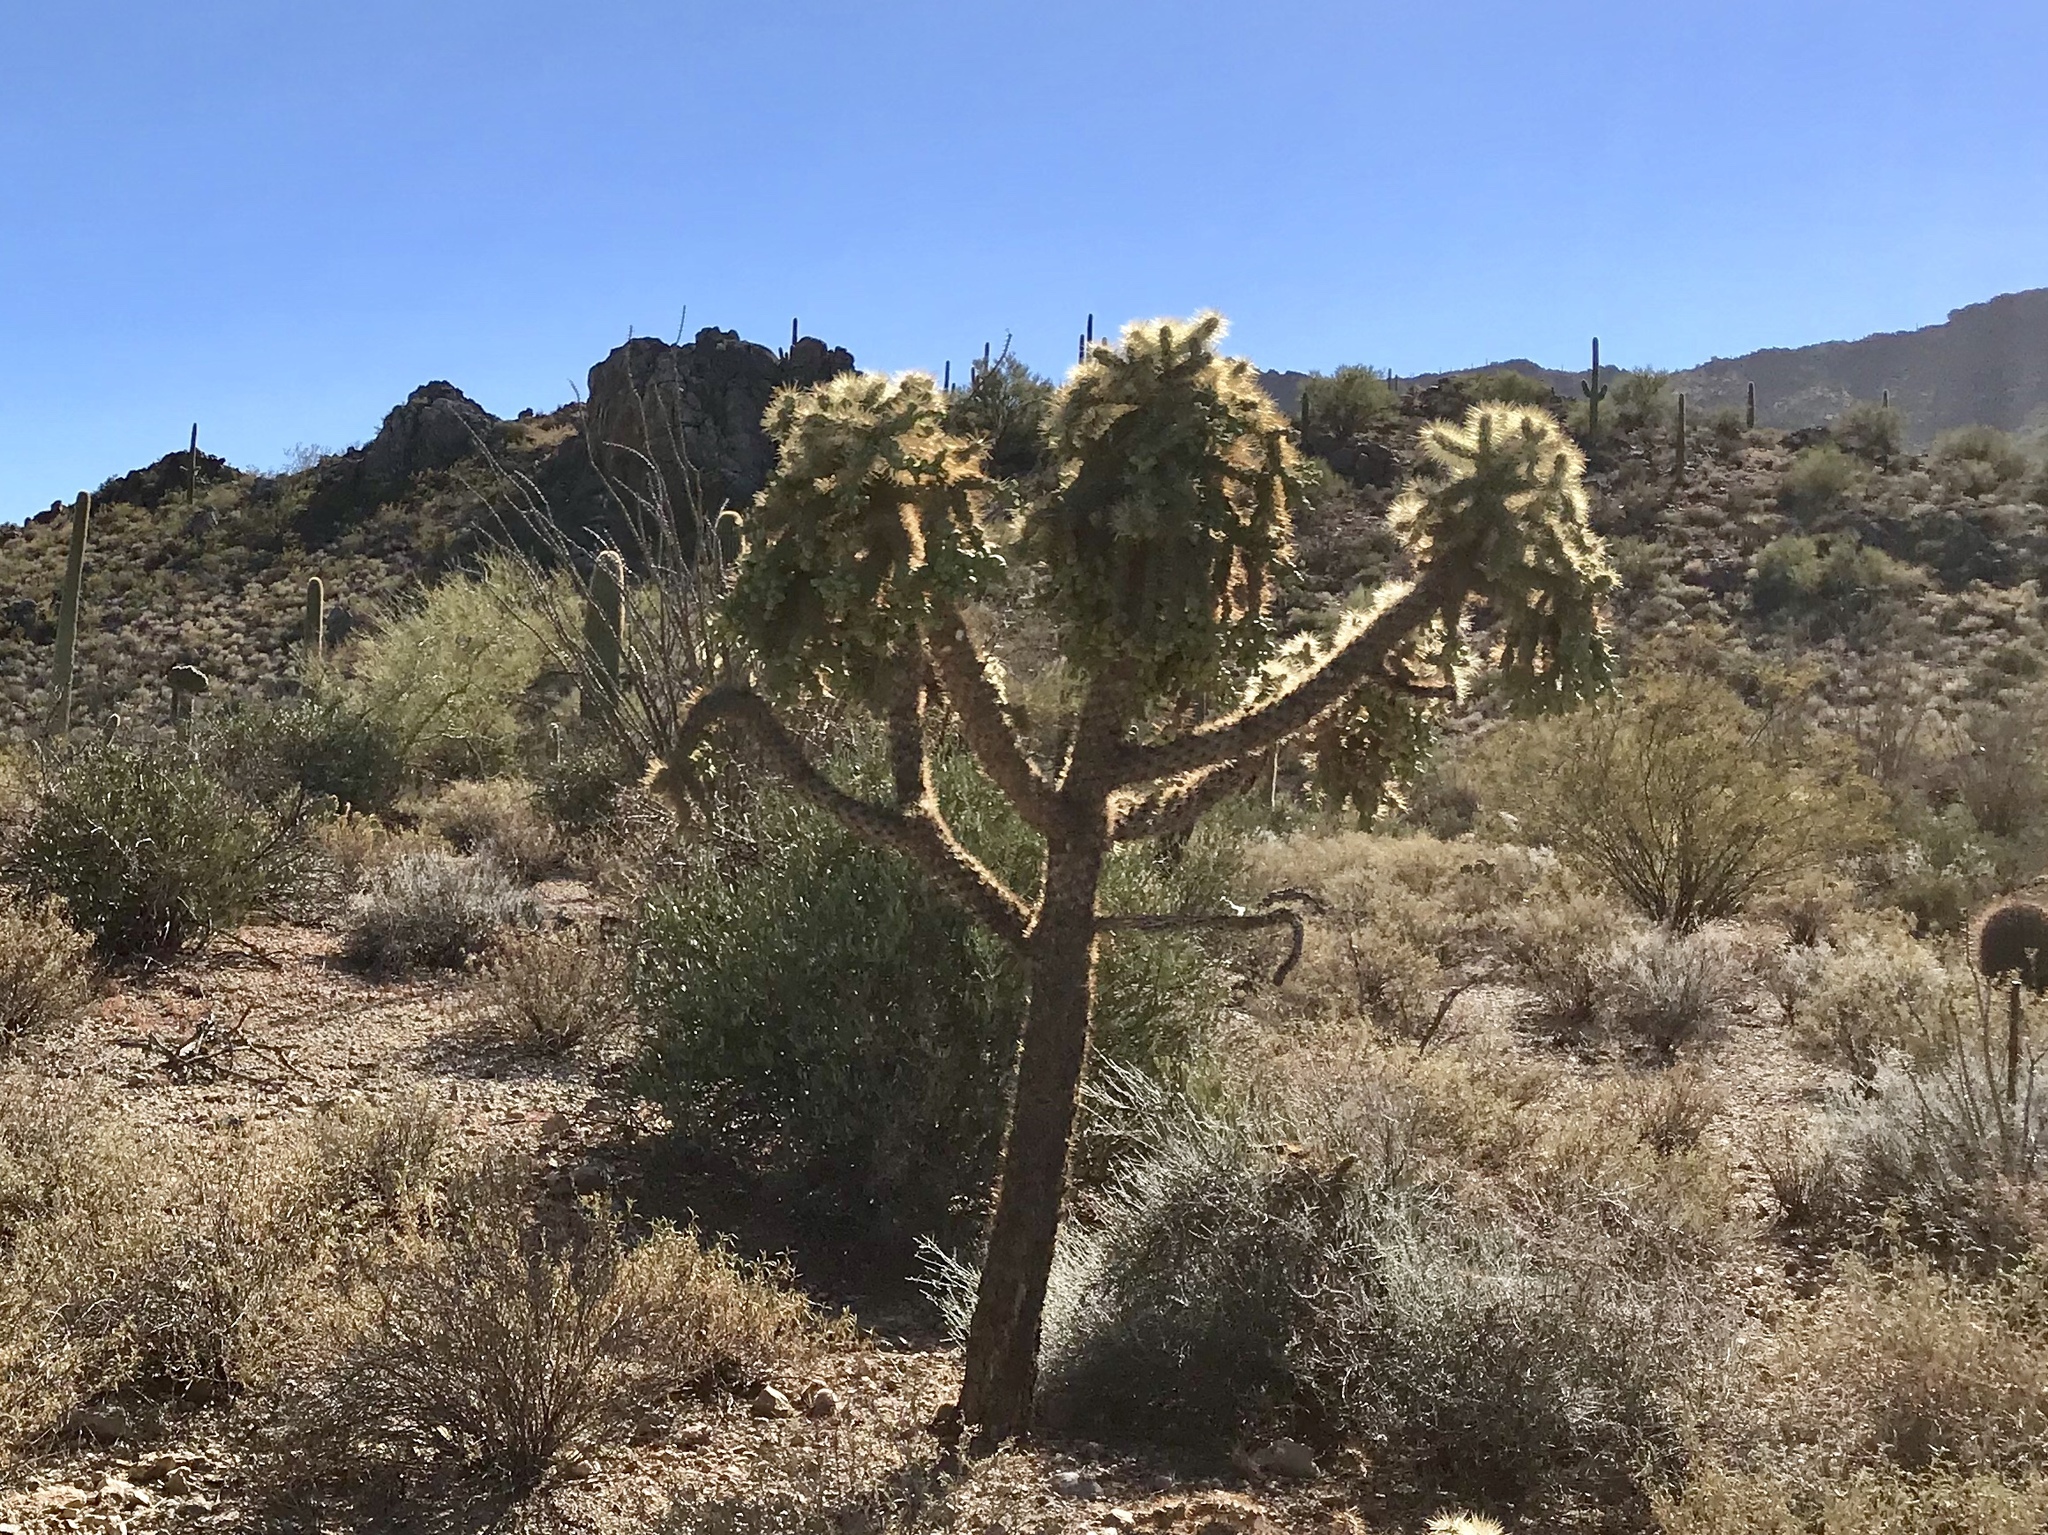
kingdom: Plantae
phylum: Tracheophyta
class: Magnoliopsida
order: Caryophyllales
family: Cactaceae
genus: Cylindropuntia
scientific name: Cylindropuntia fulgida
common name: Jumping cholla
